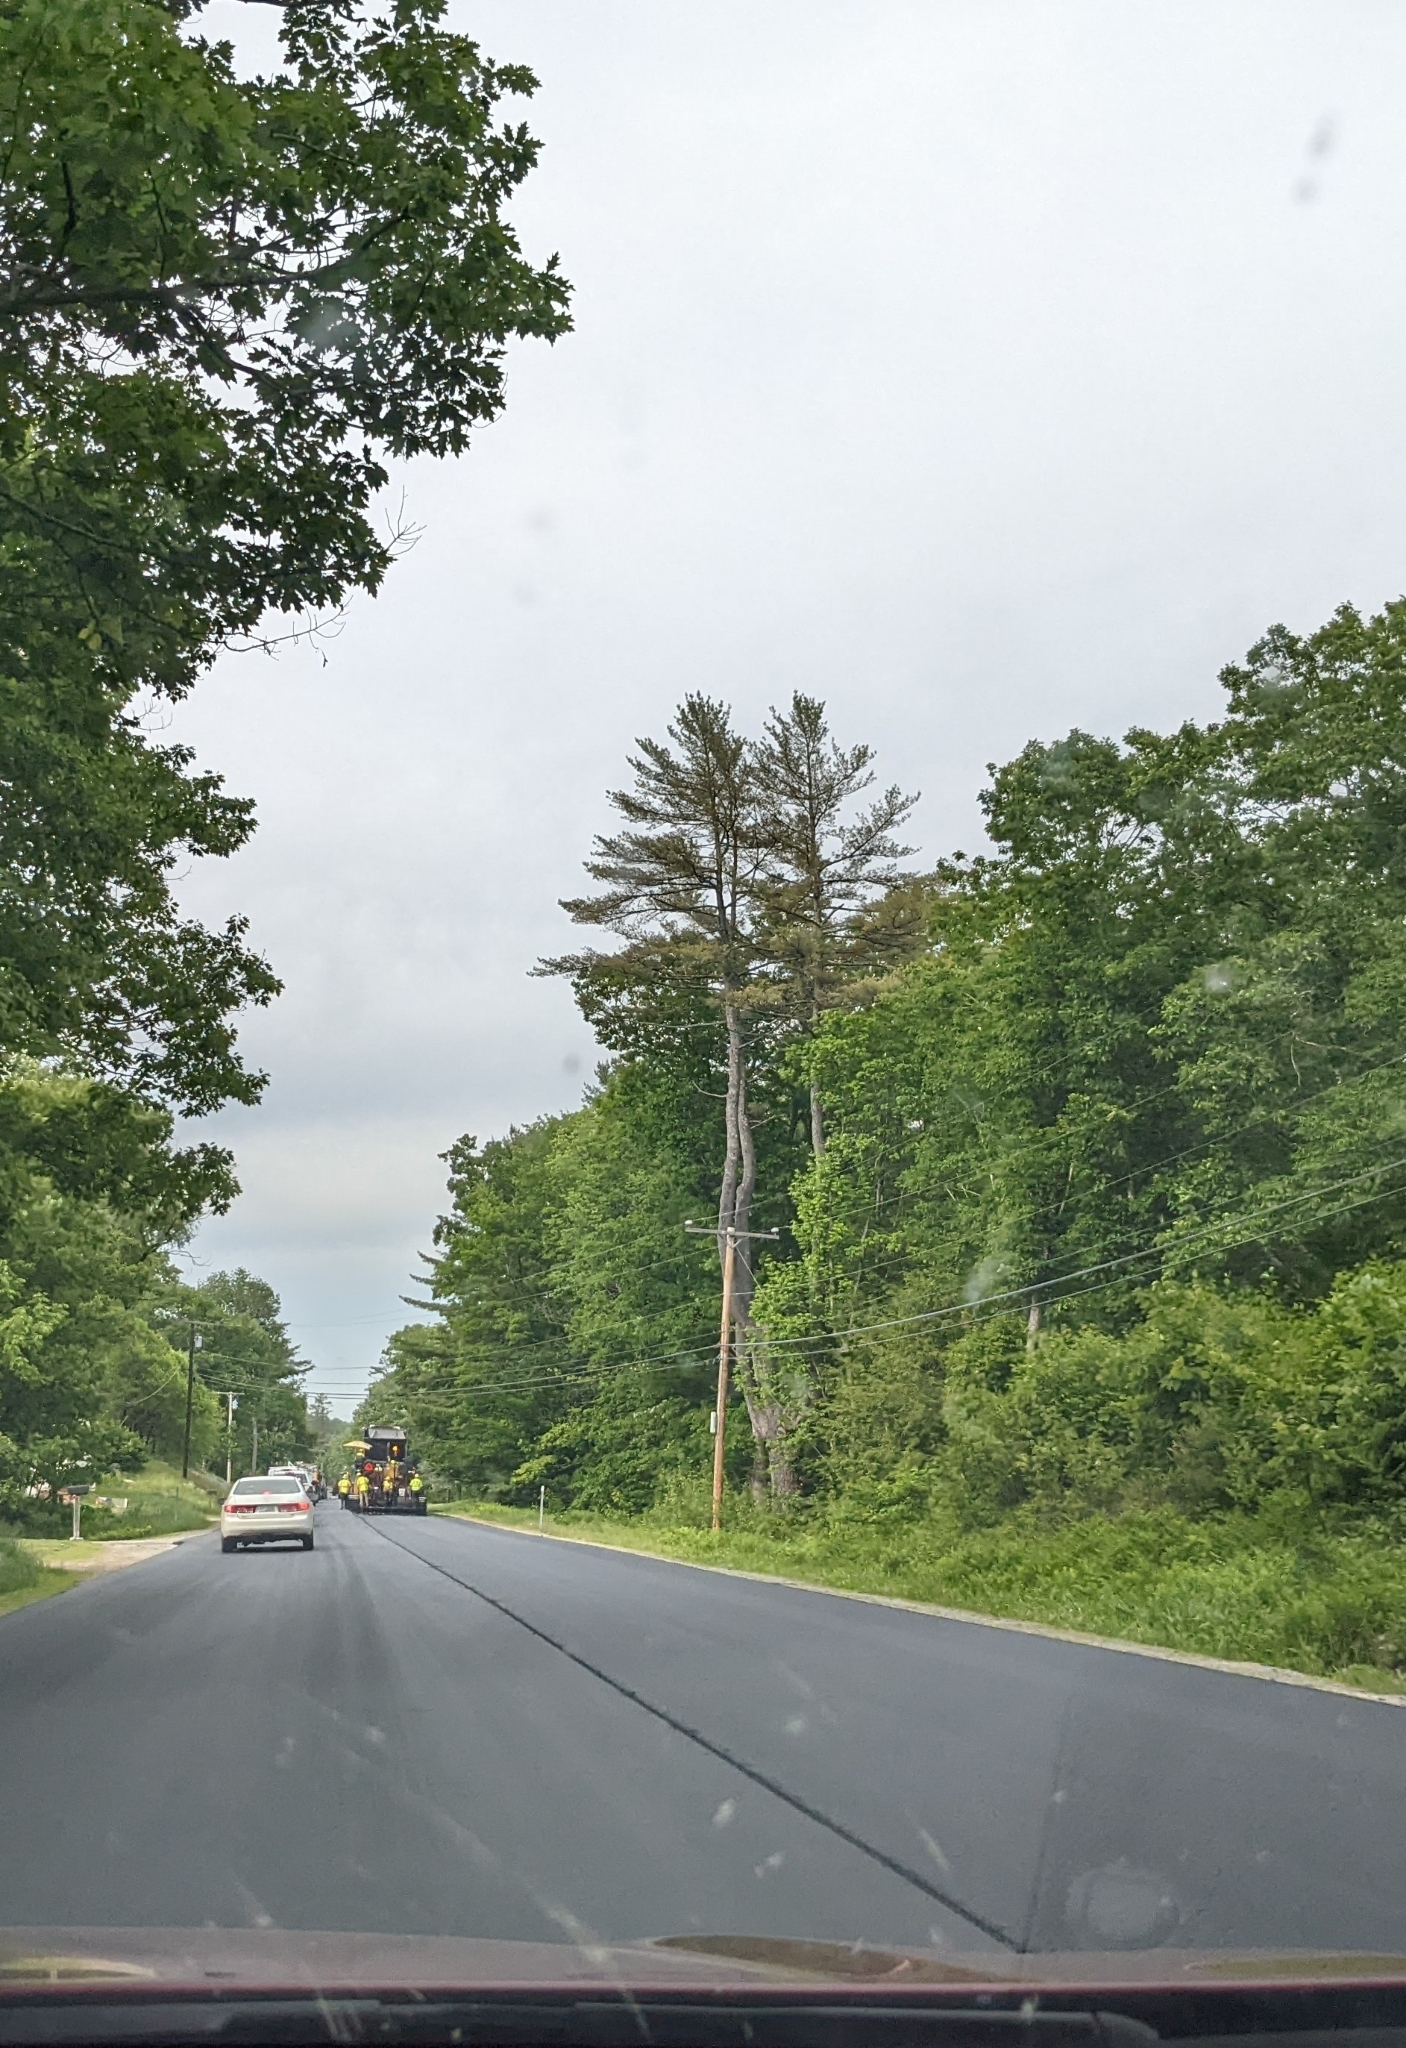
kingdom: Plantae
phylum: Tracheophyta
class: Pinopsida
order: Pinales
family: Pinaceae
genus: Pinus
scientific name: Pinus strobus
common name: Weymouth pine
